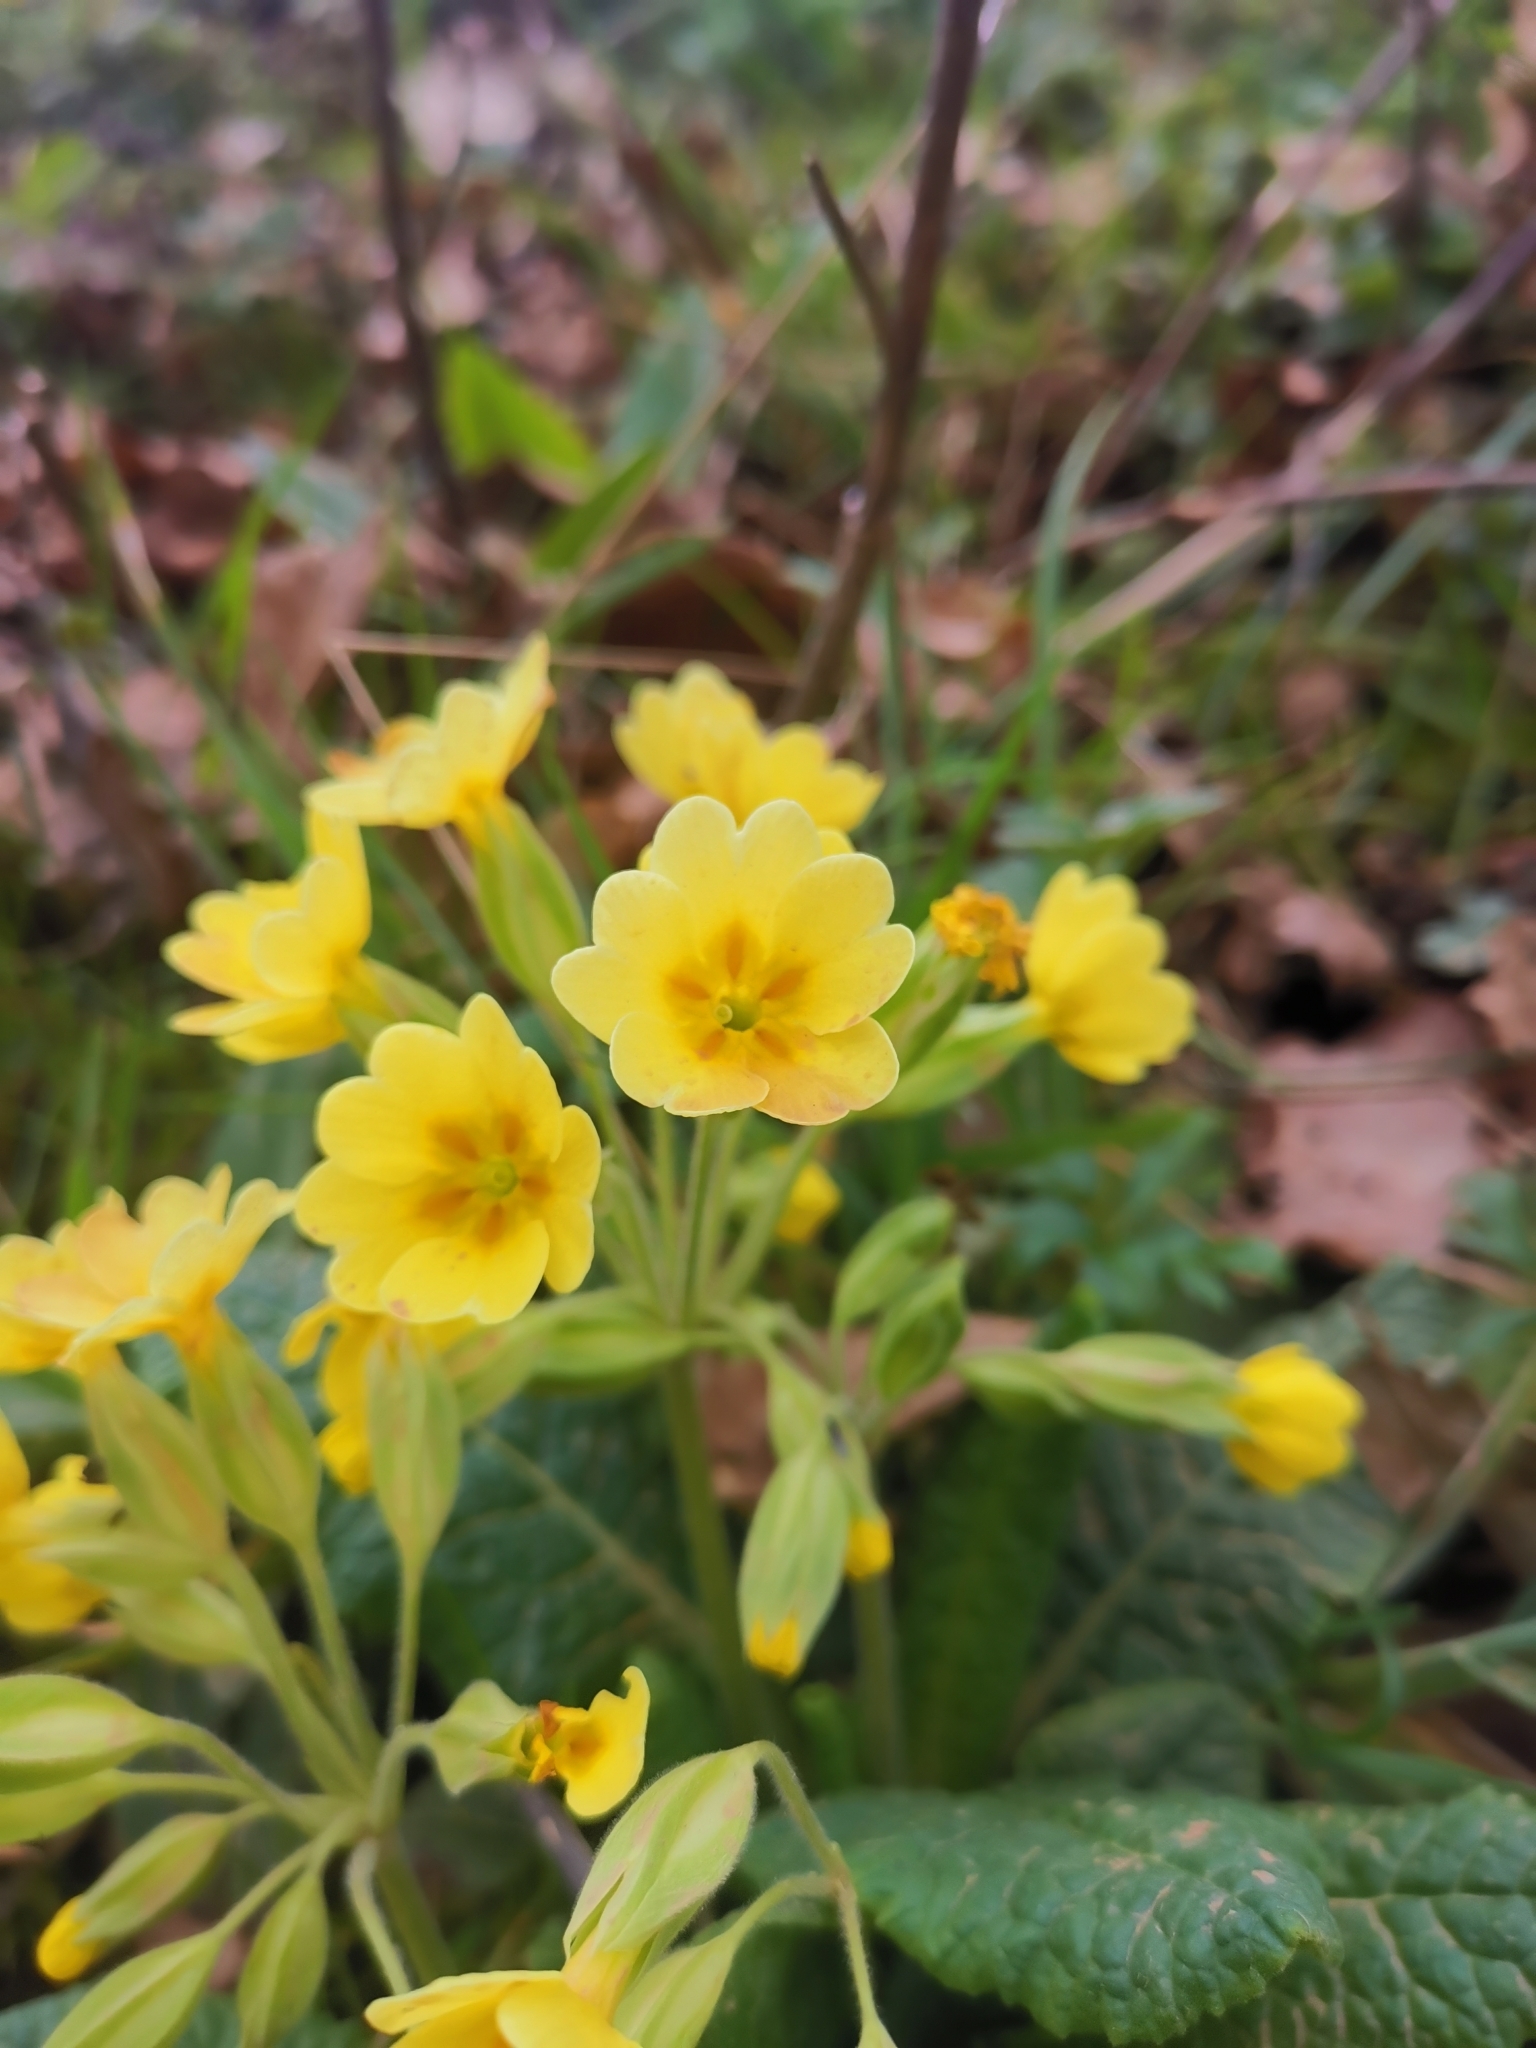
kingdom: Plantae
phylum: Tracheophyta
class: Magnoliopsida
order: Ericales
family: Primulaceae
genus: Primula
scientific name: Primula polyantha
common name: False oxlip
